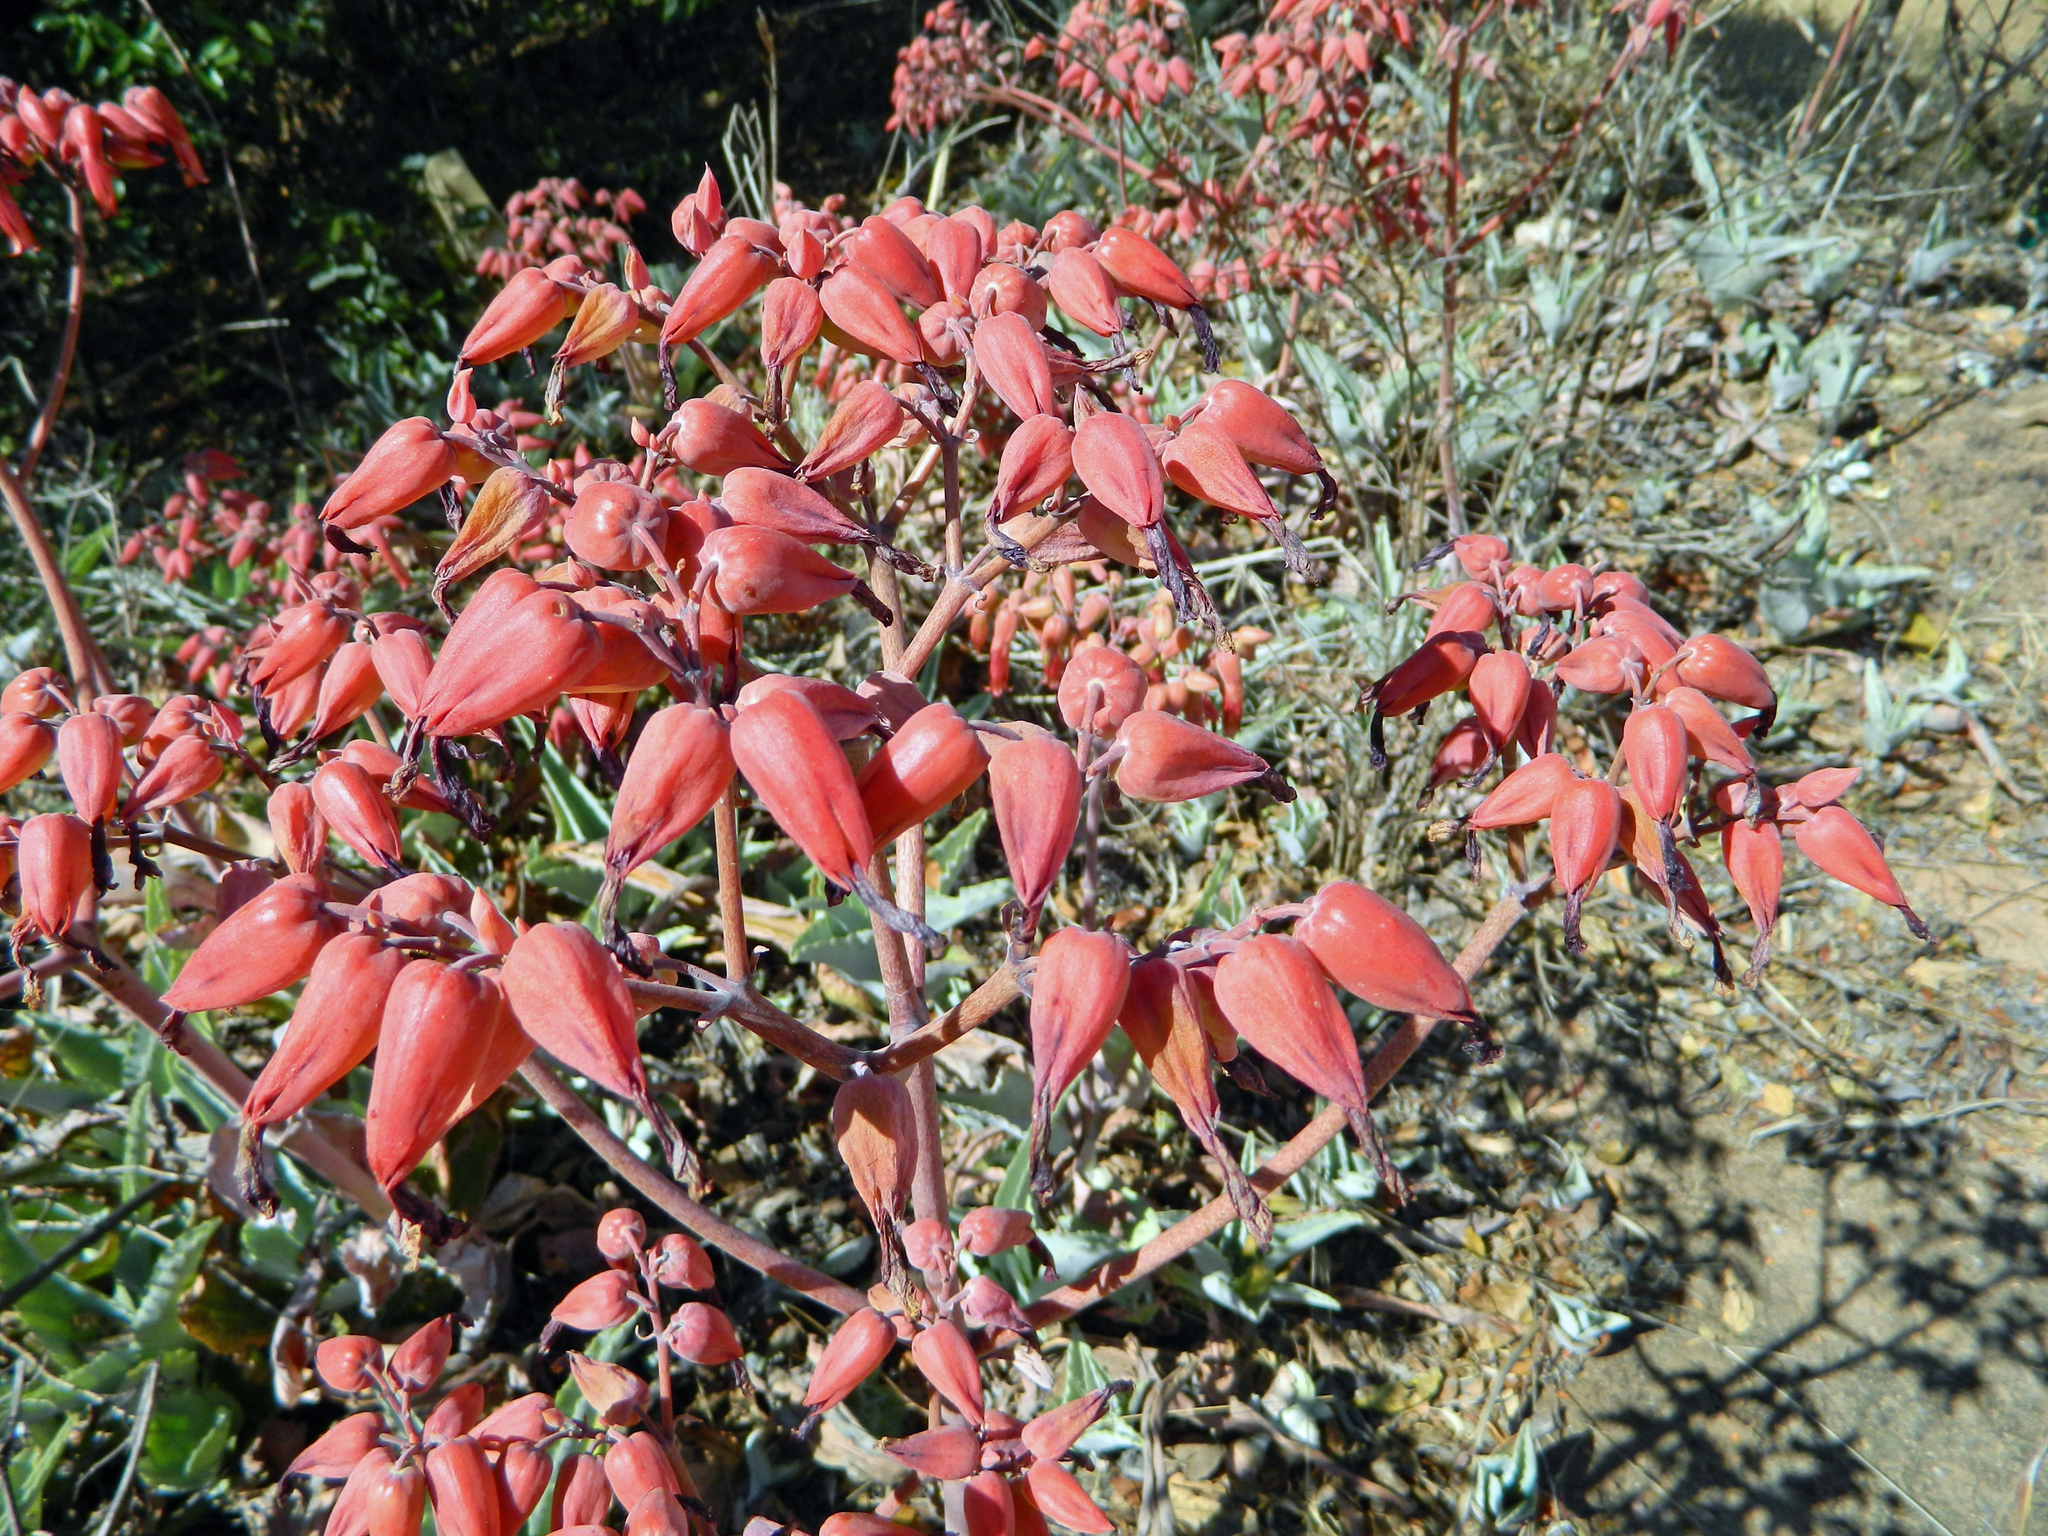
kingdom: Plantae
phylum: Tracheophyta
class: Magnoliopsida
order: Saxifragales
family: Crassulaceae
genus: Kalanchoe
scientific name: Kalanchoe gastonis-bonnieri
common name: Palm beachbells
